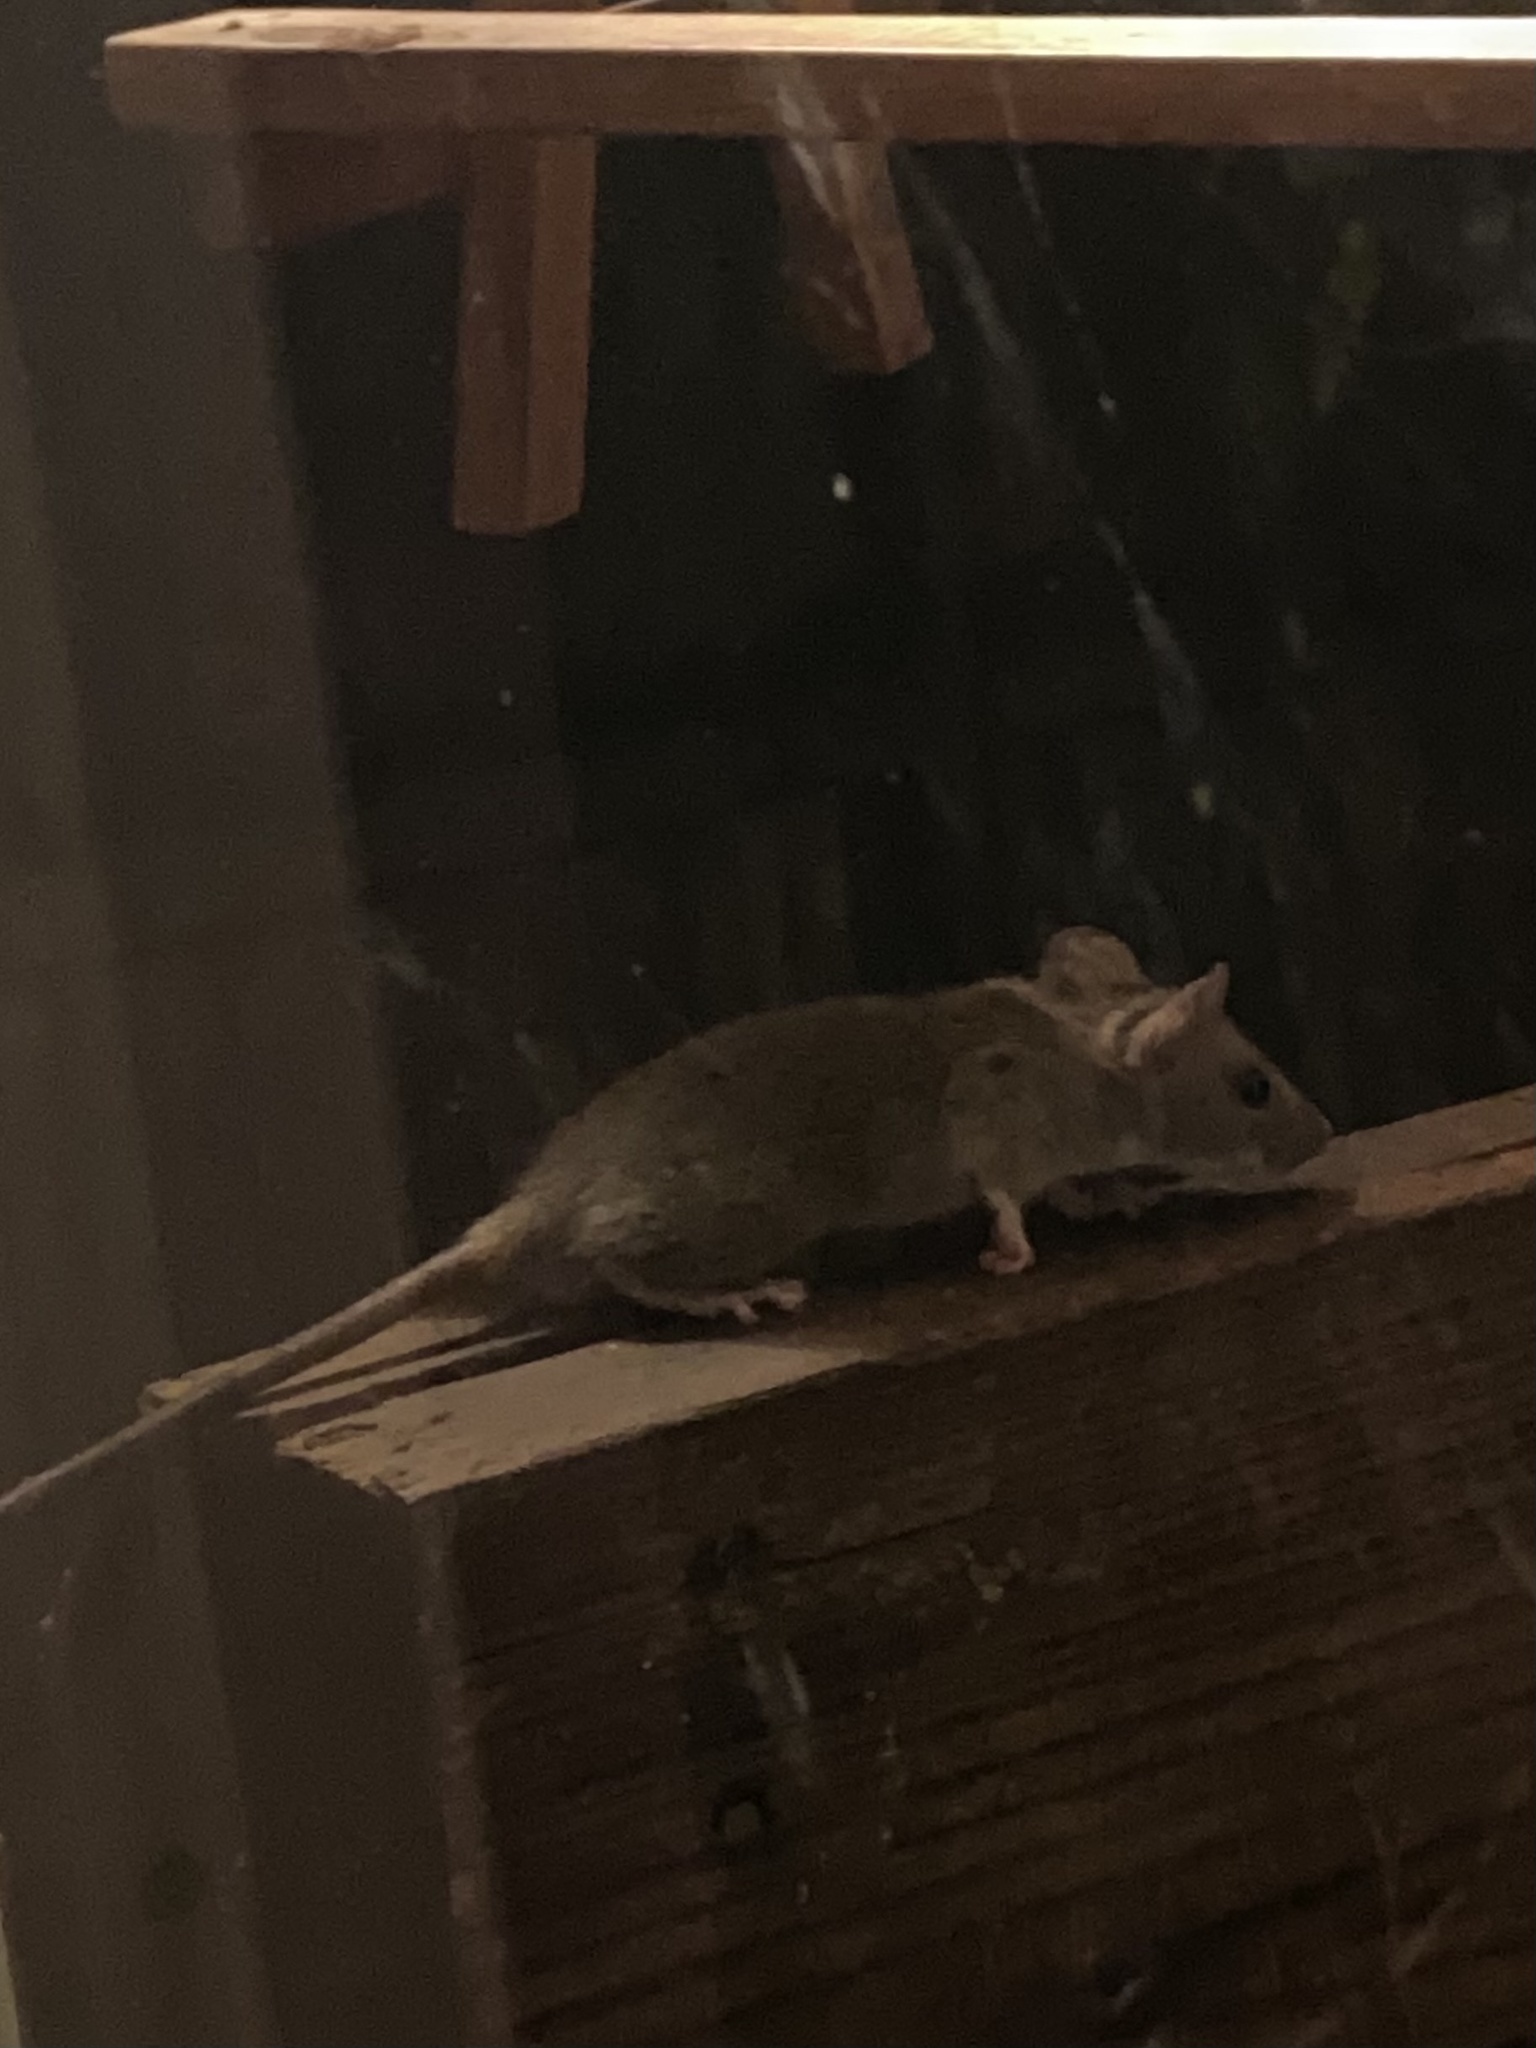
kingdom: Animalia
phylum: Chordata
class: Mammalia
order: Rodentia
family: Muridae
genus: Mus
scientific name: Mus musculus
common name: House mouse
